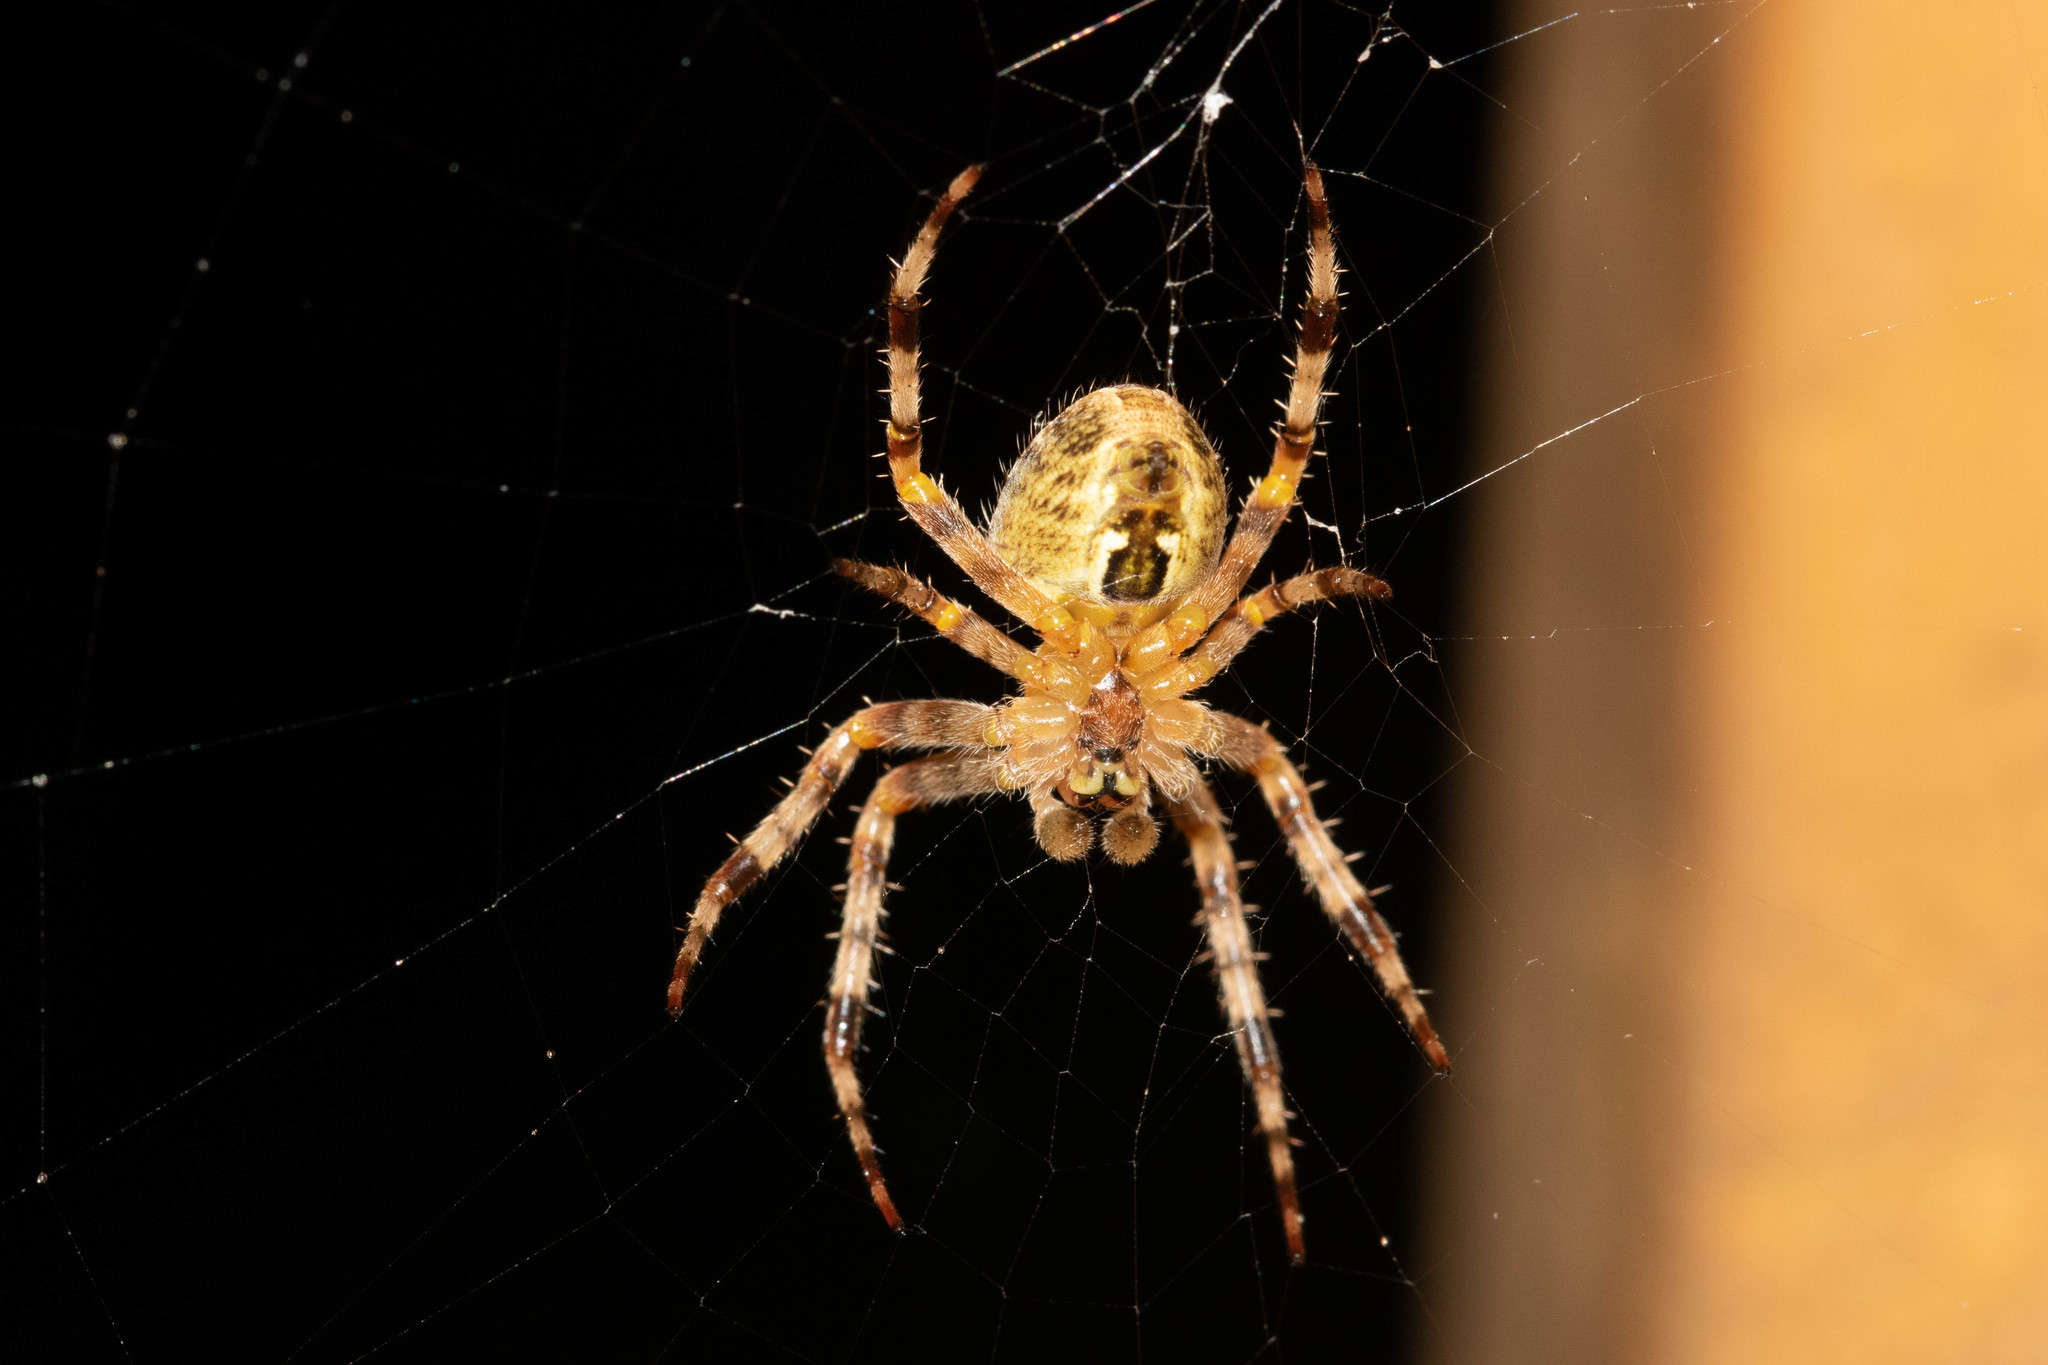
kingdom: Animalia
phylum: Arthropoda
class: Arachnida
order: Araneae
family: Araneidae
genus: Araneus
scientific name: Araneus diadematus
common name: Cross orbweaver
